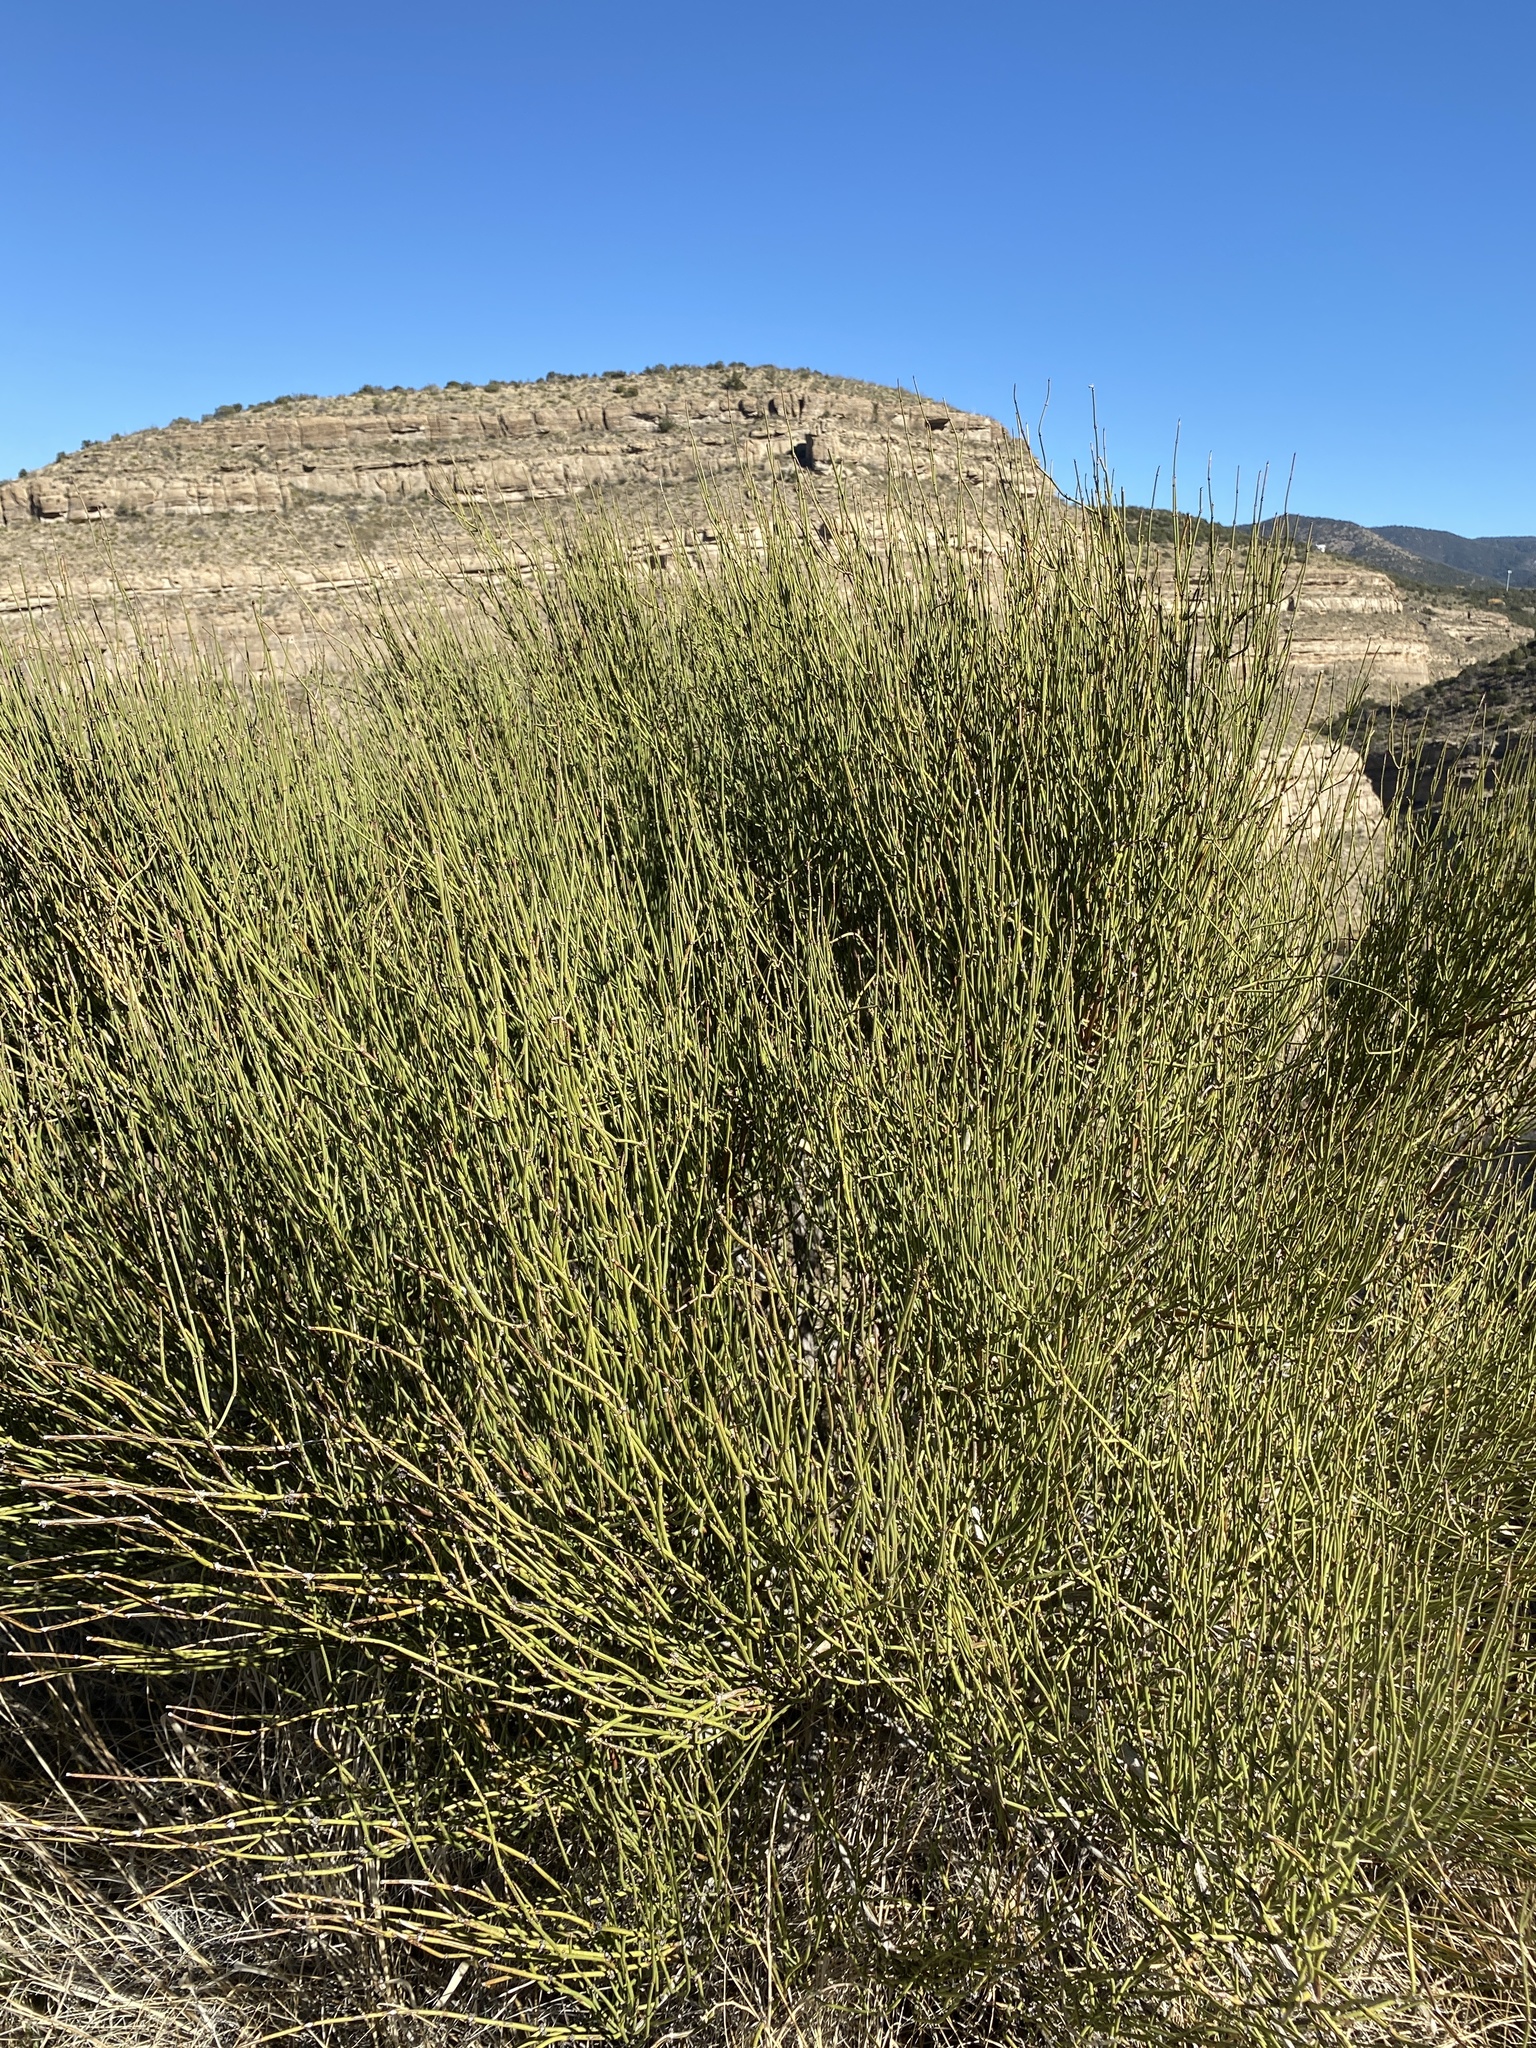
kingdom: Plantae
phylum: Tracheophyta
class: Gnetopsida
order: Ephedrales
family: Ephedraceae
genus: Ephedra
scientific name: Ephedra trifurca
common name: Mexican-tea
